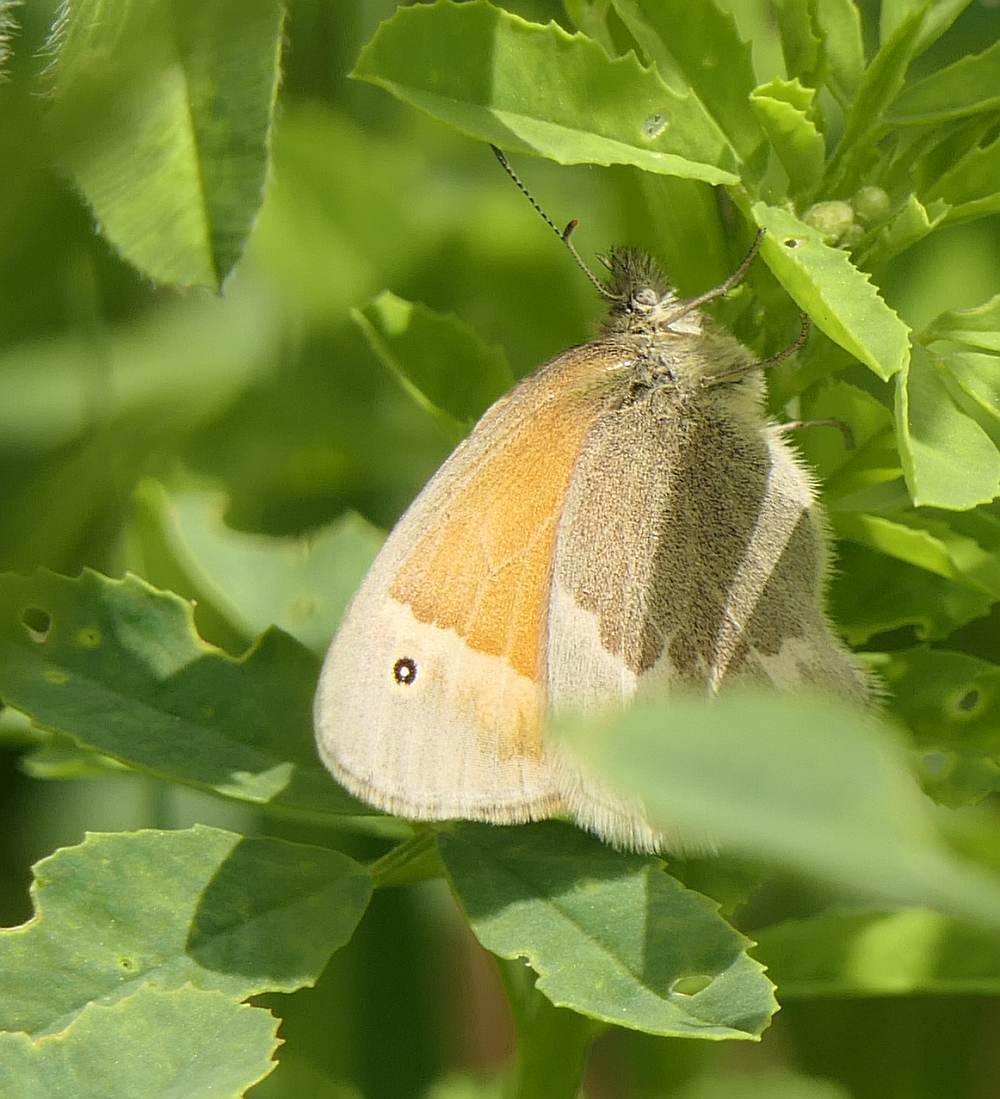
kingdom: Animalia
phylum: Arthropoda
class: Insecta
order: Lepidoptera
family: Nymphalidae
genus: Coenonympha
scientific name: Coenonympha california
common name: Common ringlet
